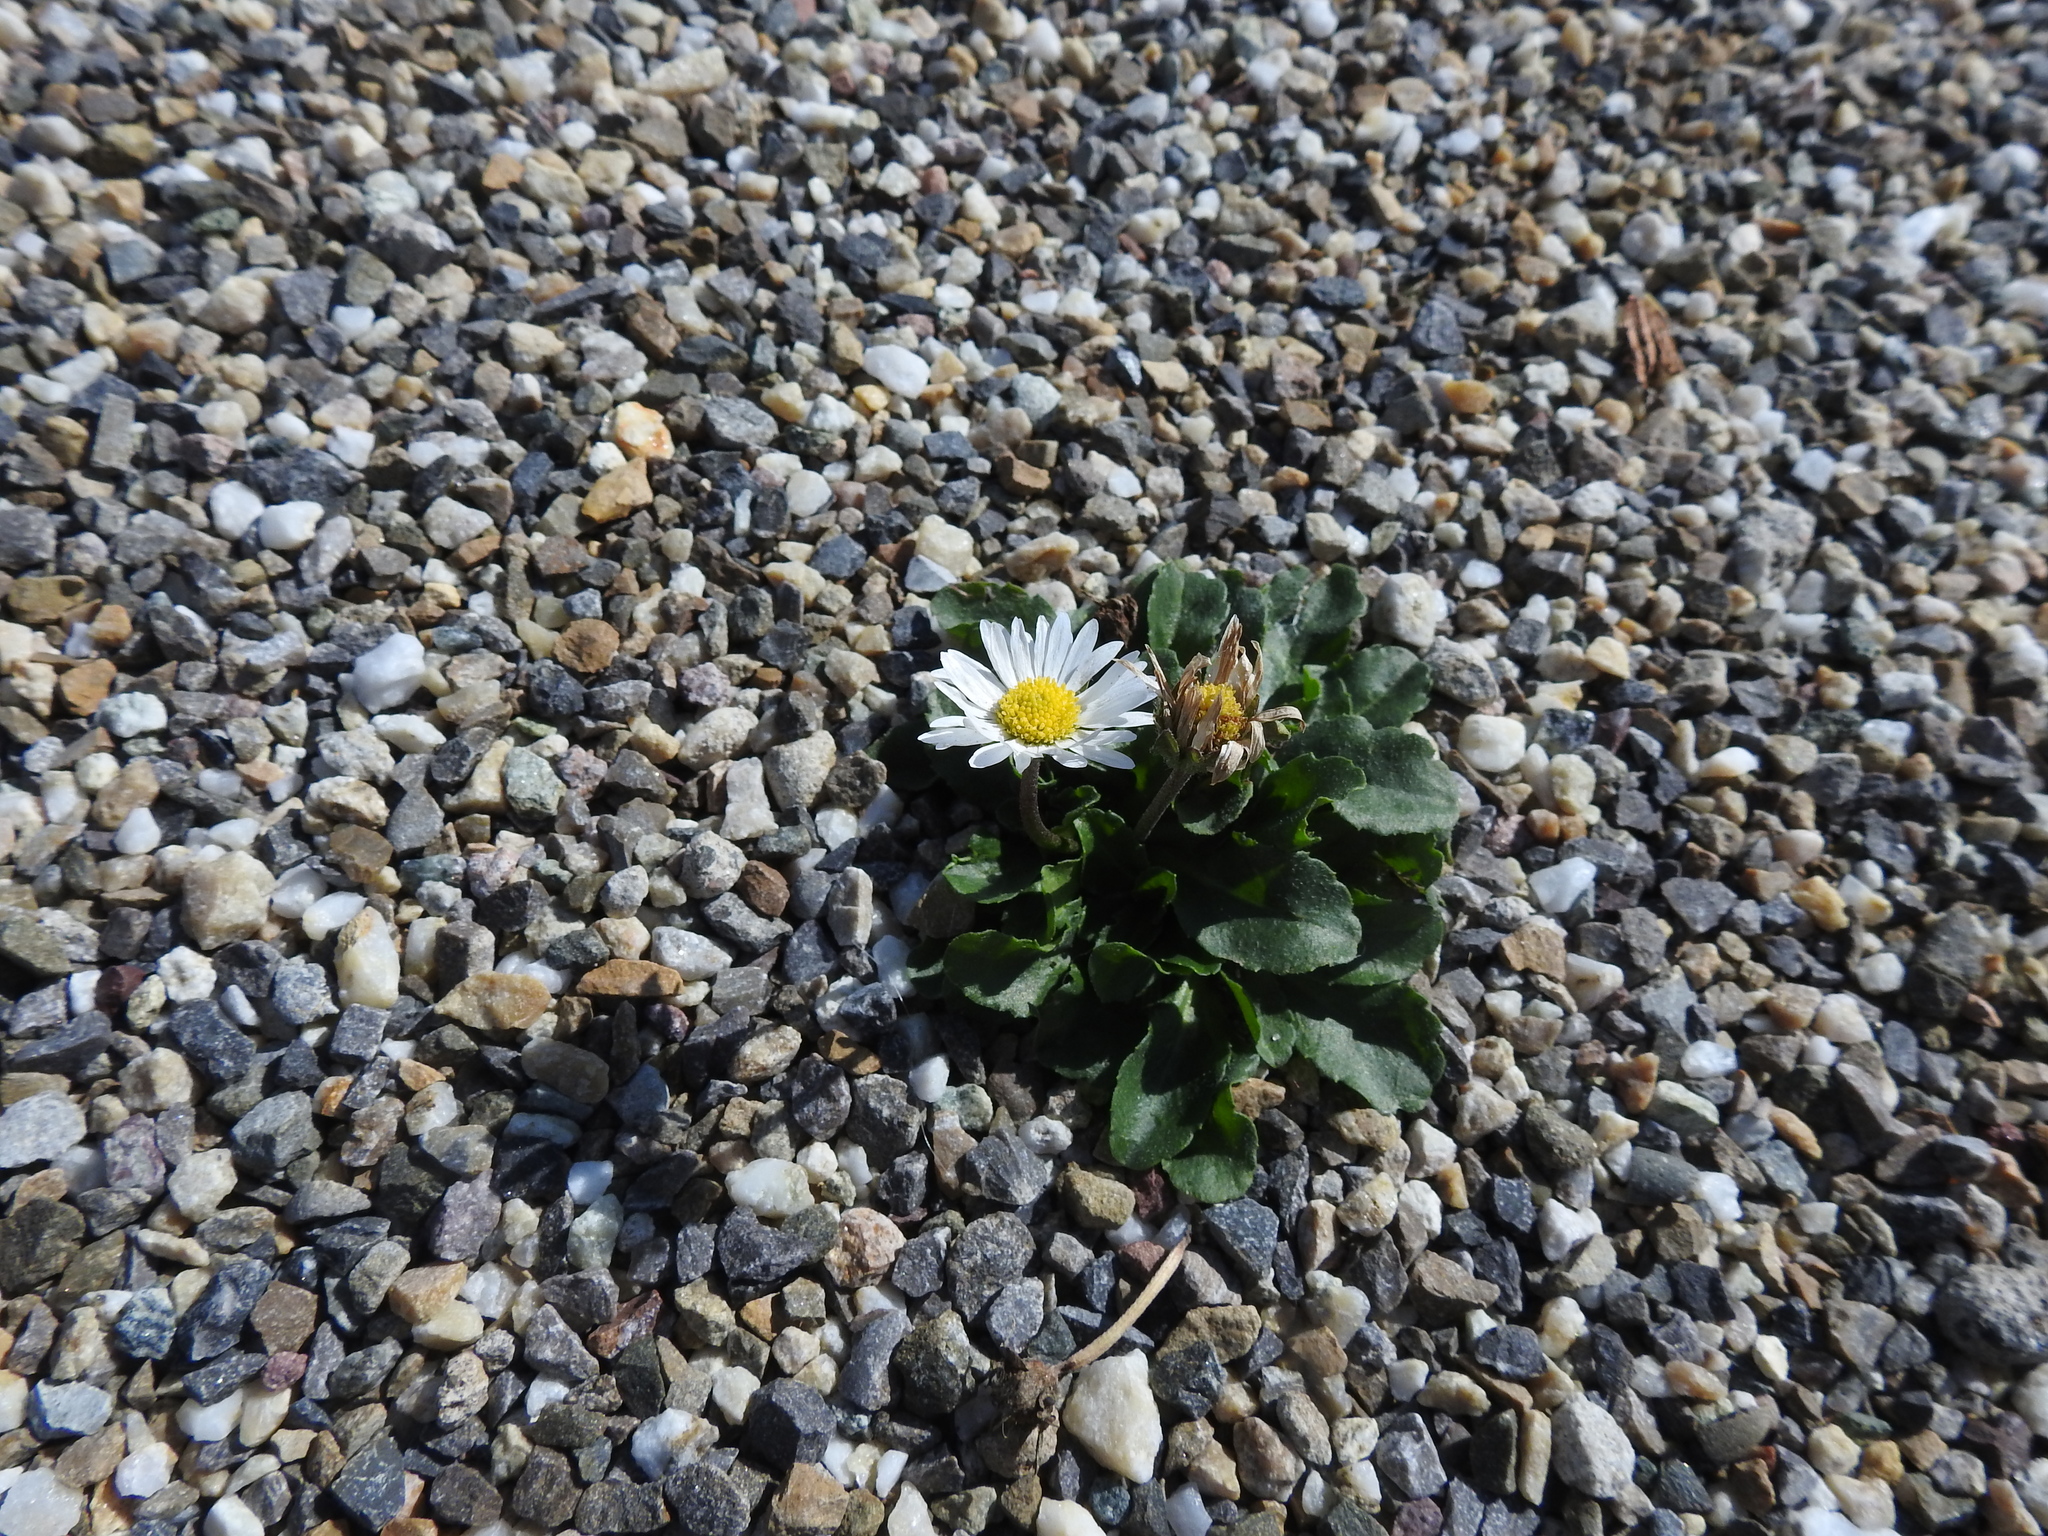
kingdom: Plantae
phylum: Tracheophyta
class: Magnoliopsida
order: Asterales
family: Asteraceae
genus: Bellis
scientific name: Bellis perennis
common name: Lawndaisy
